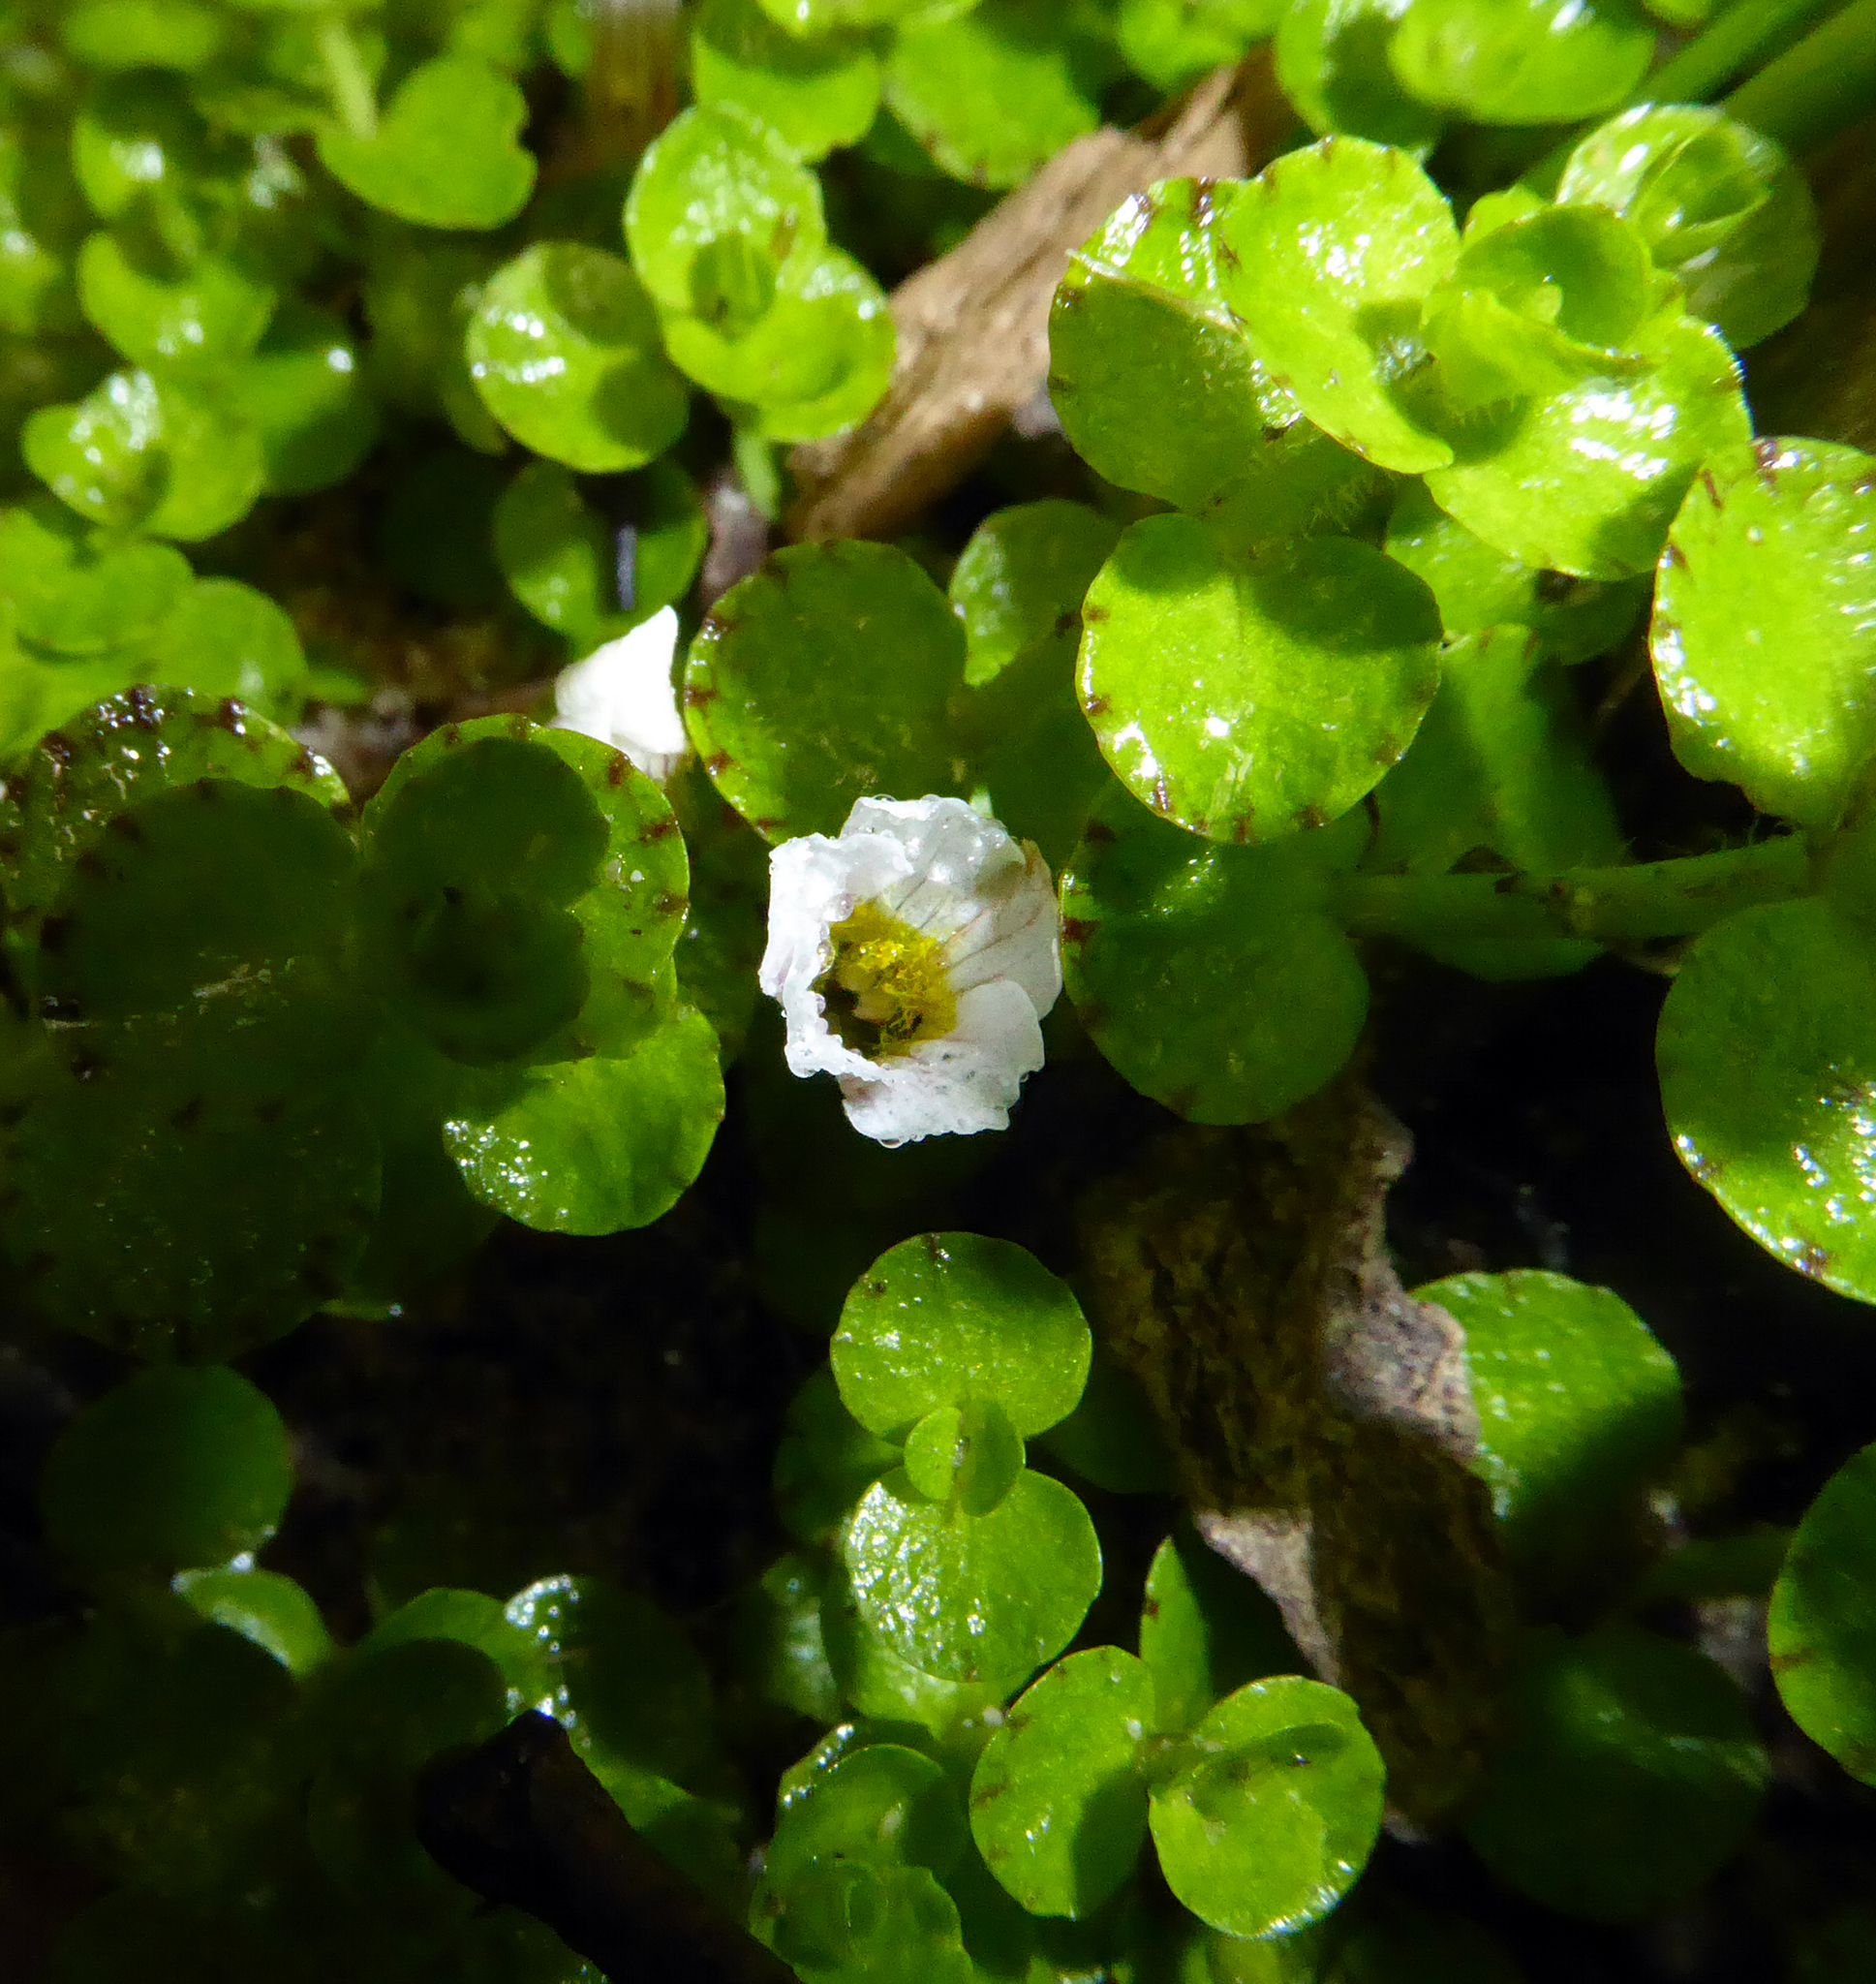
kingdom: Plantae
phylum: Tracheophyta
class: Magnoliopsida
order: Lamiales
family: Plantaginaceae
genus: Gratiola
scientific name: Gratiola nana
